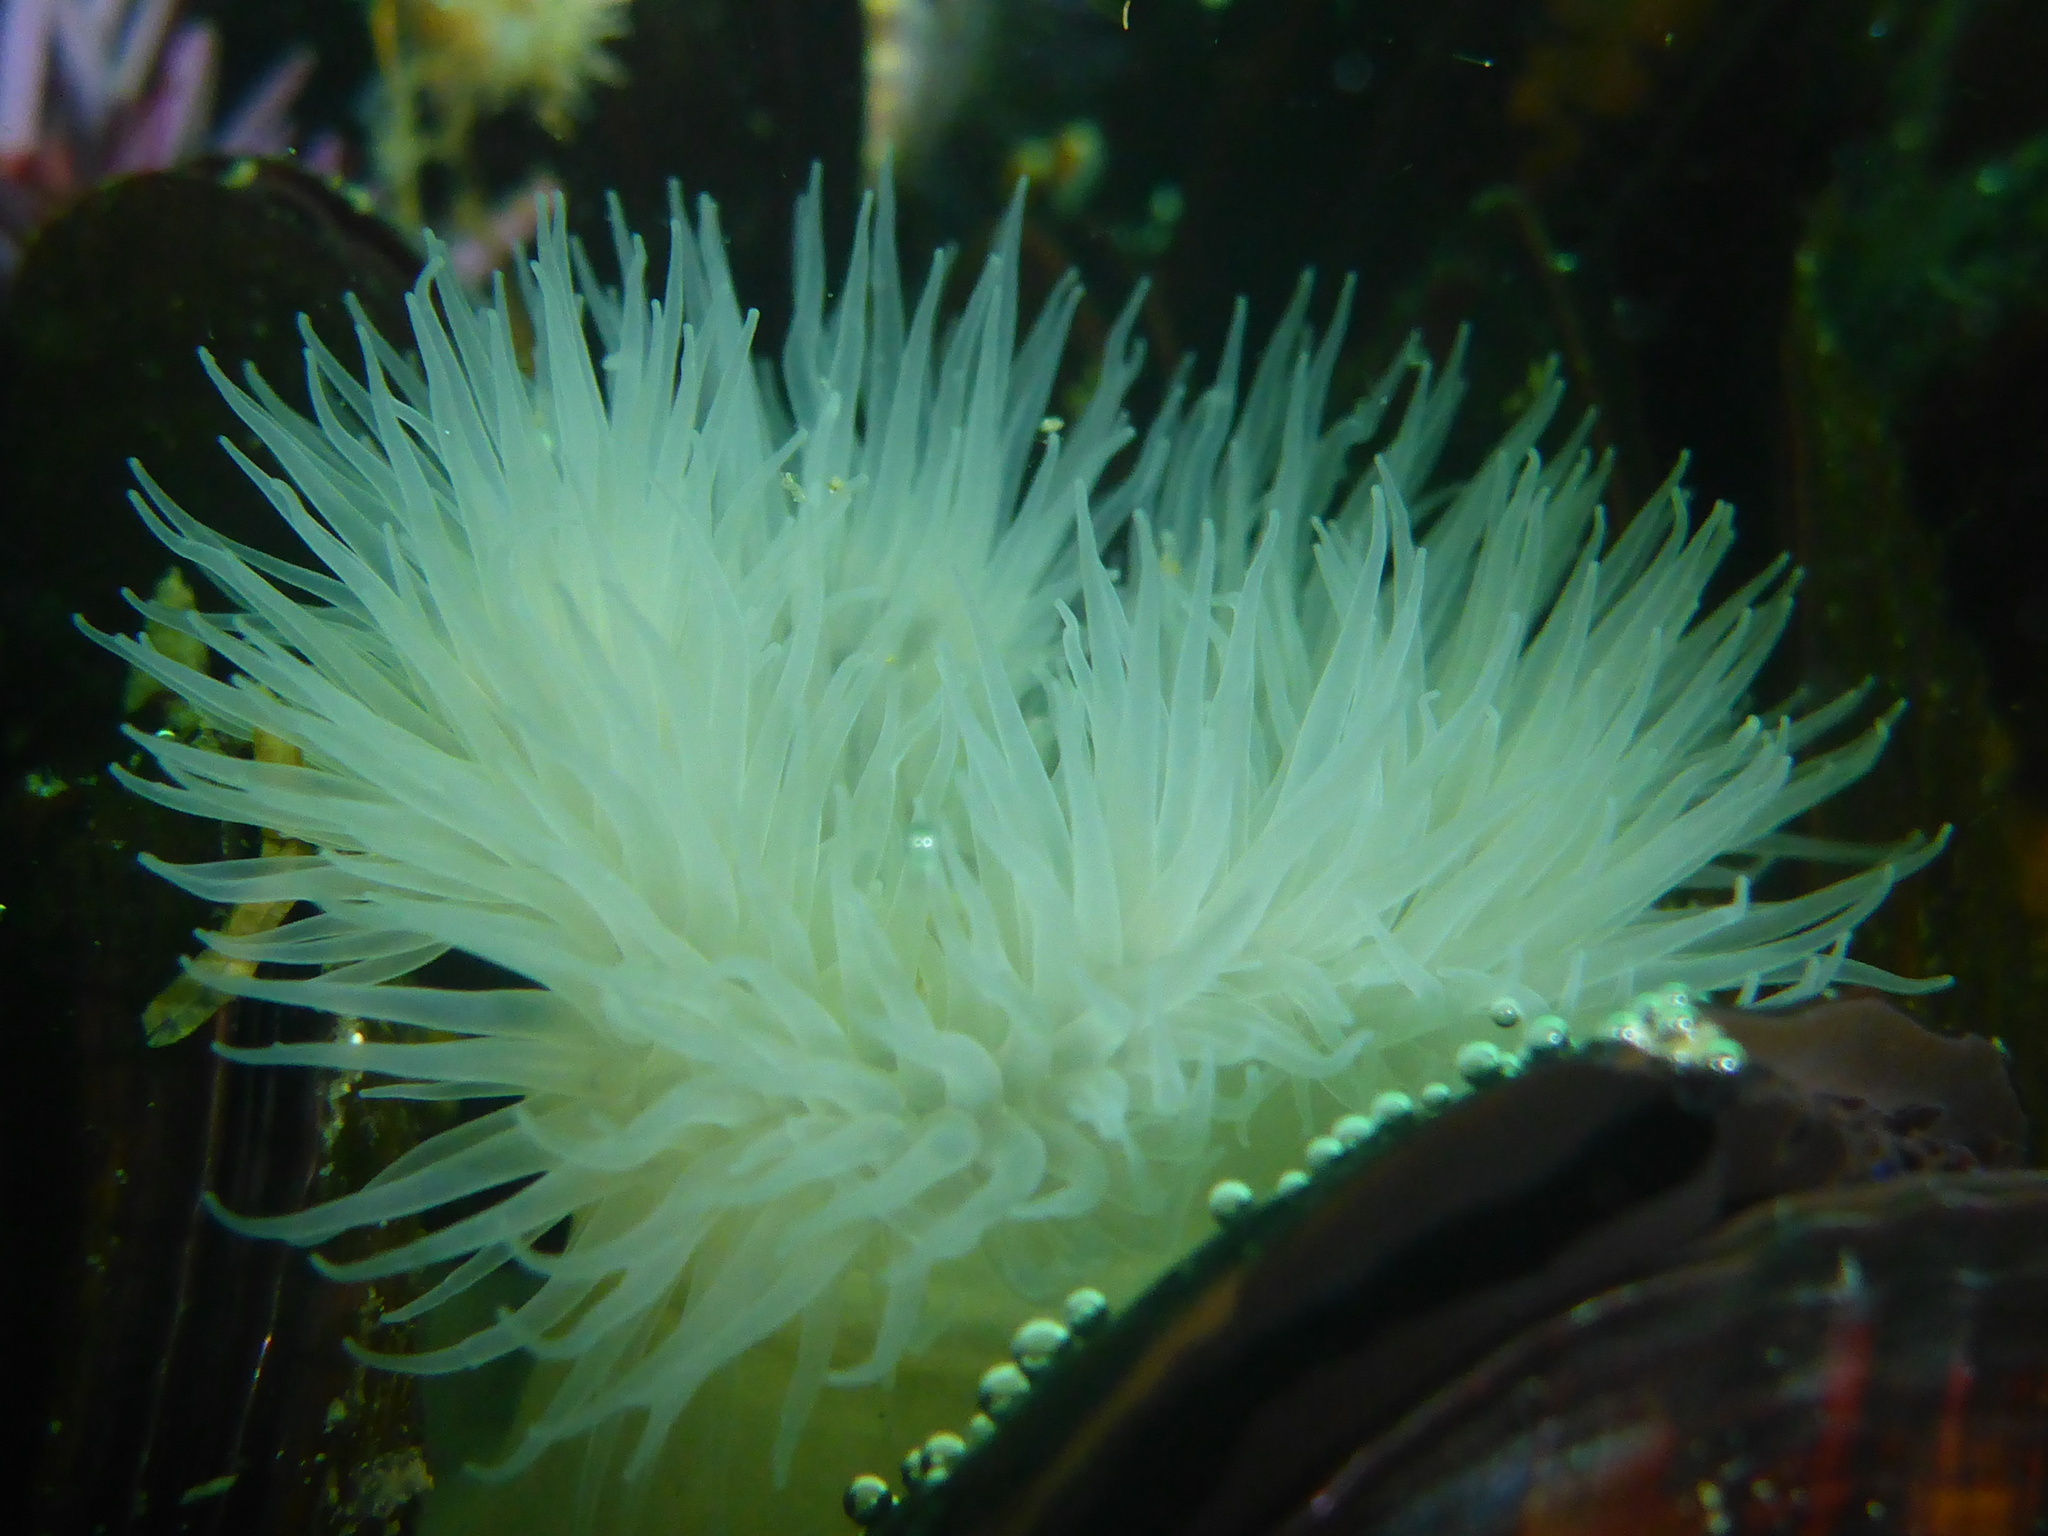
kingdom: Animalia
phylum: Cnidaria
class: Anthozoa
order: Actiniaria
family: Metridiidae
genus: Metridium
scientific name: Metridium senile
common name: Clonal plumose anemone
